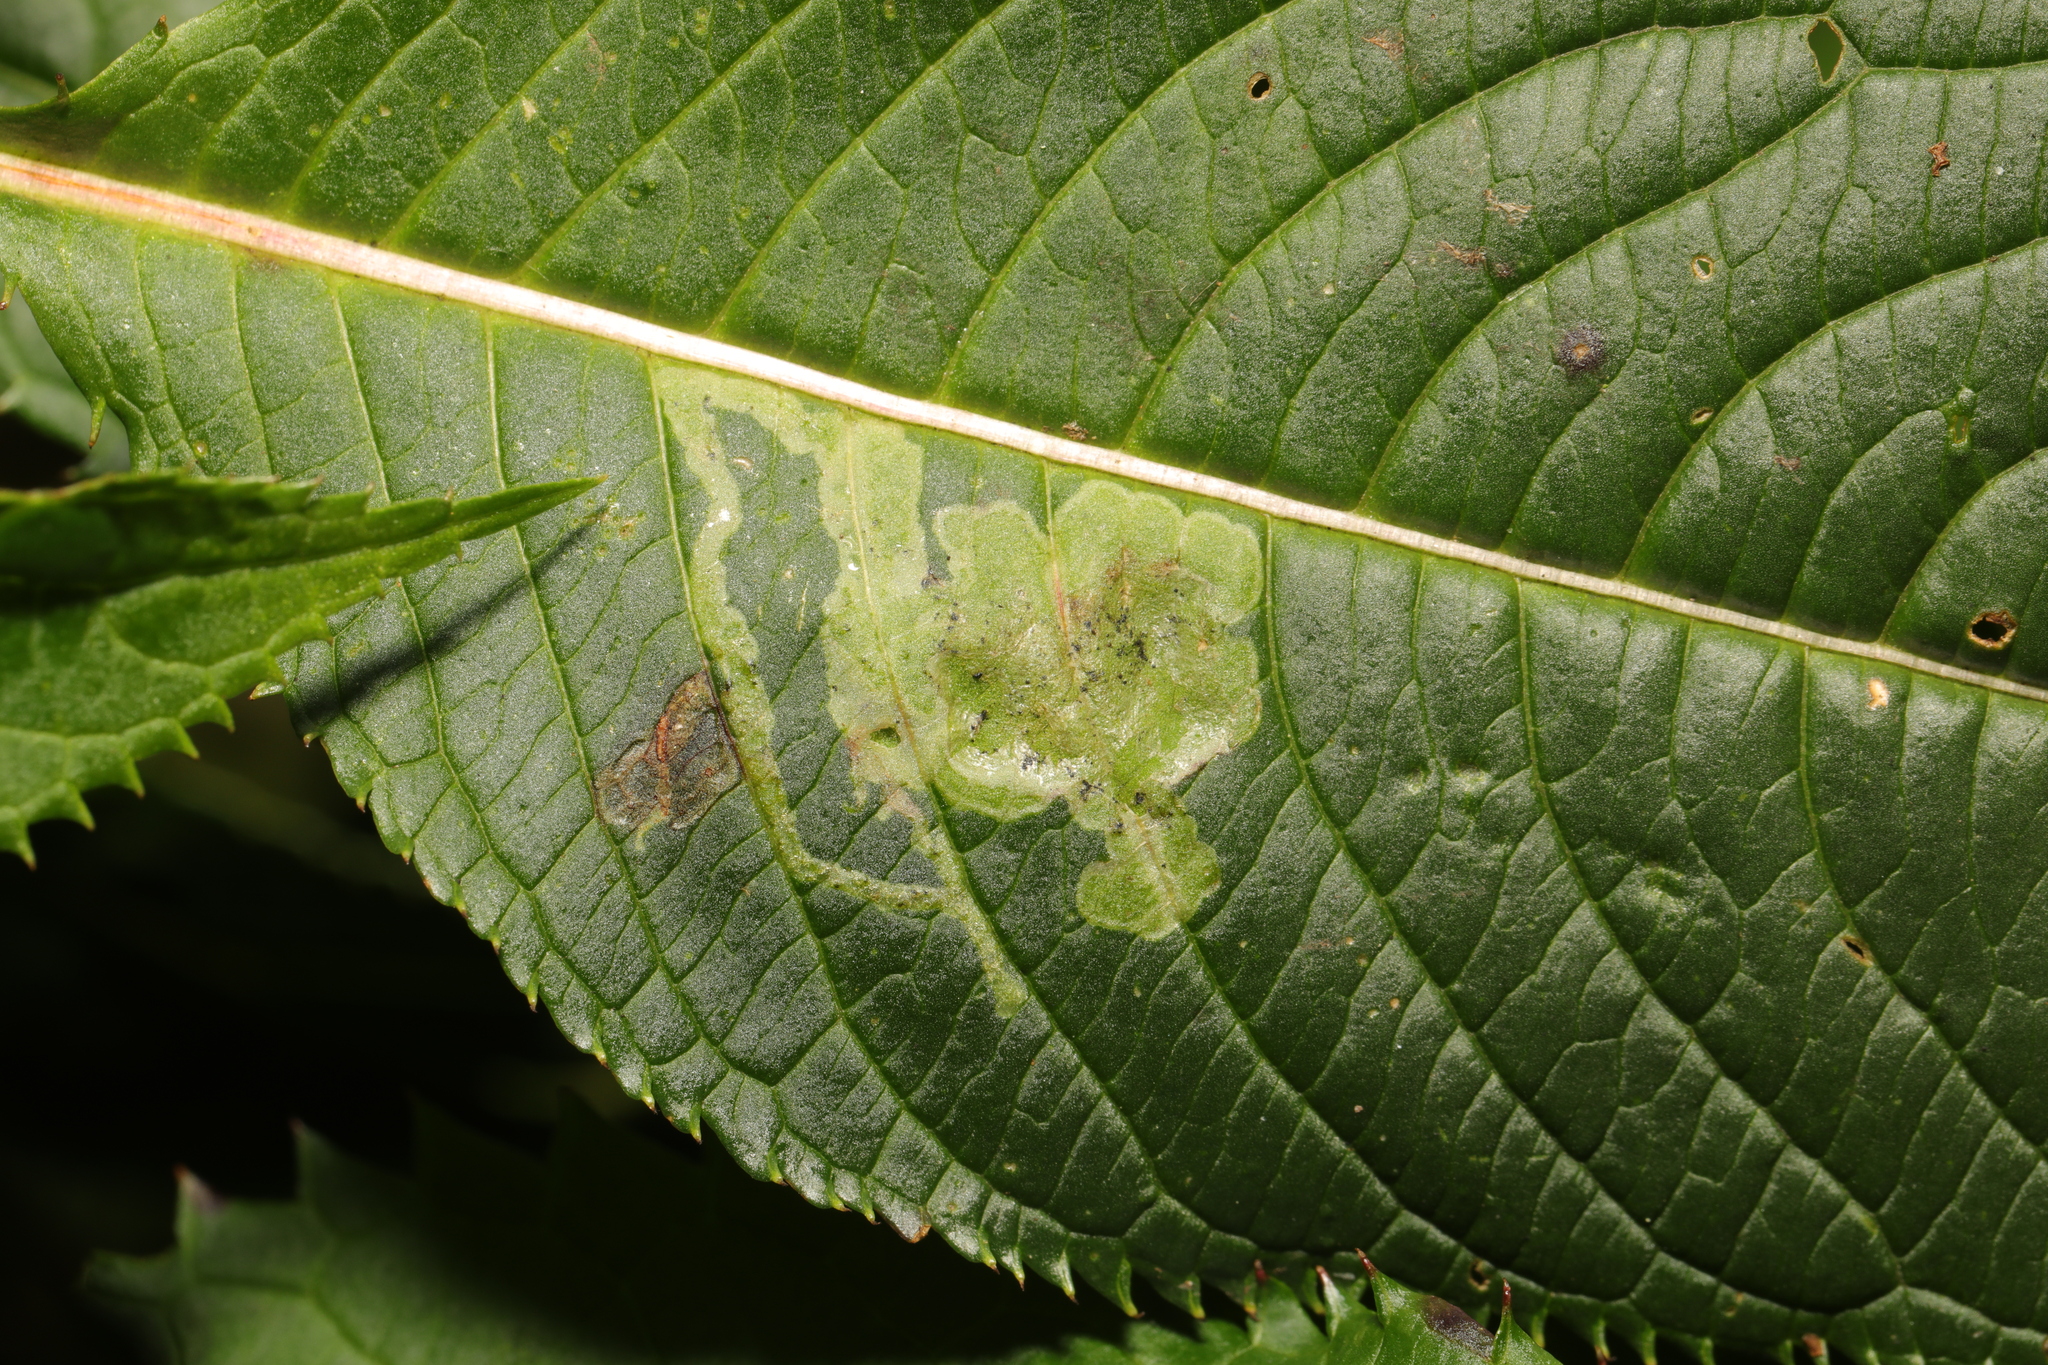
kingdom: Animalia
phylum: Arthropoda
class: Insecta
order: Diptera
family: Agromyzidae
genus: Phytoliriomyza
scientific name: Phytoliriomyza melampyga
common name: Jewelweed leaf-miner fly
